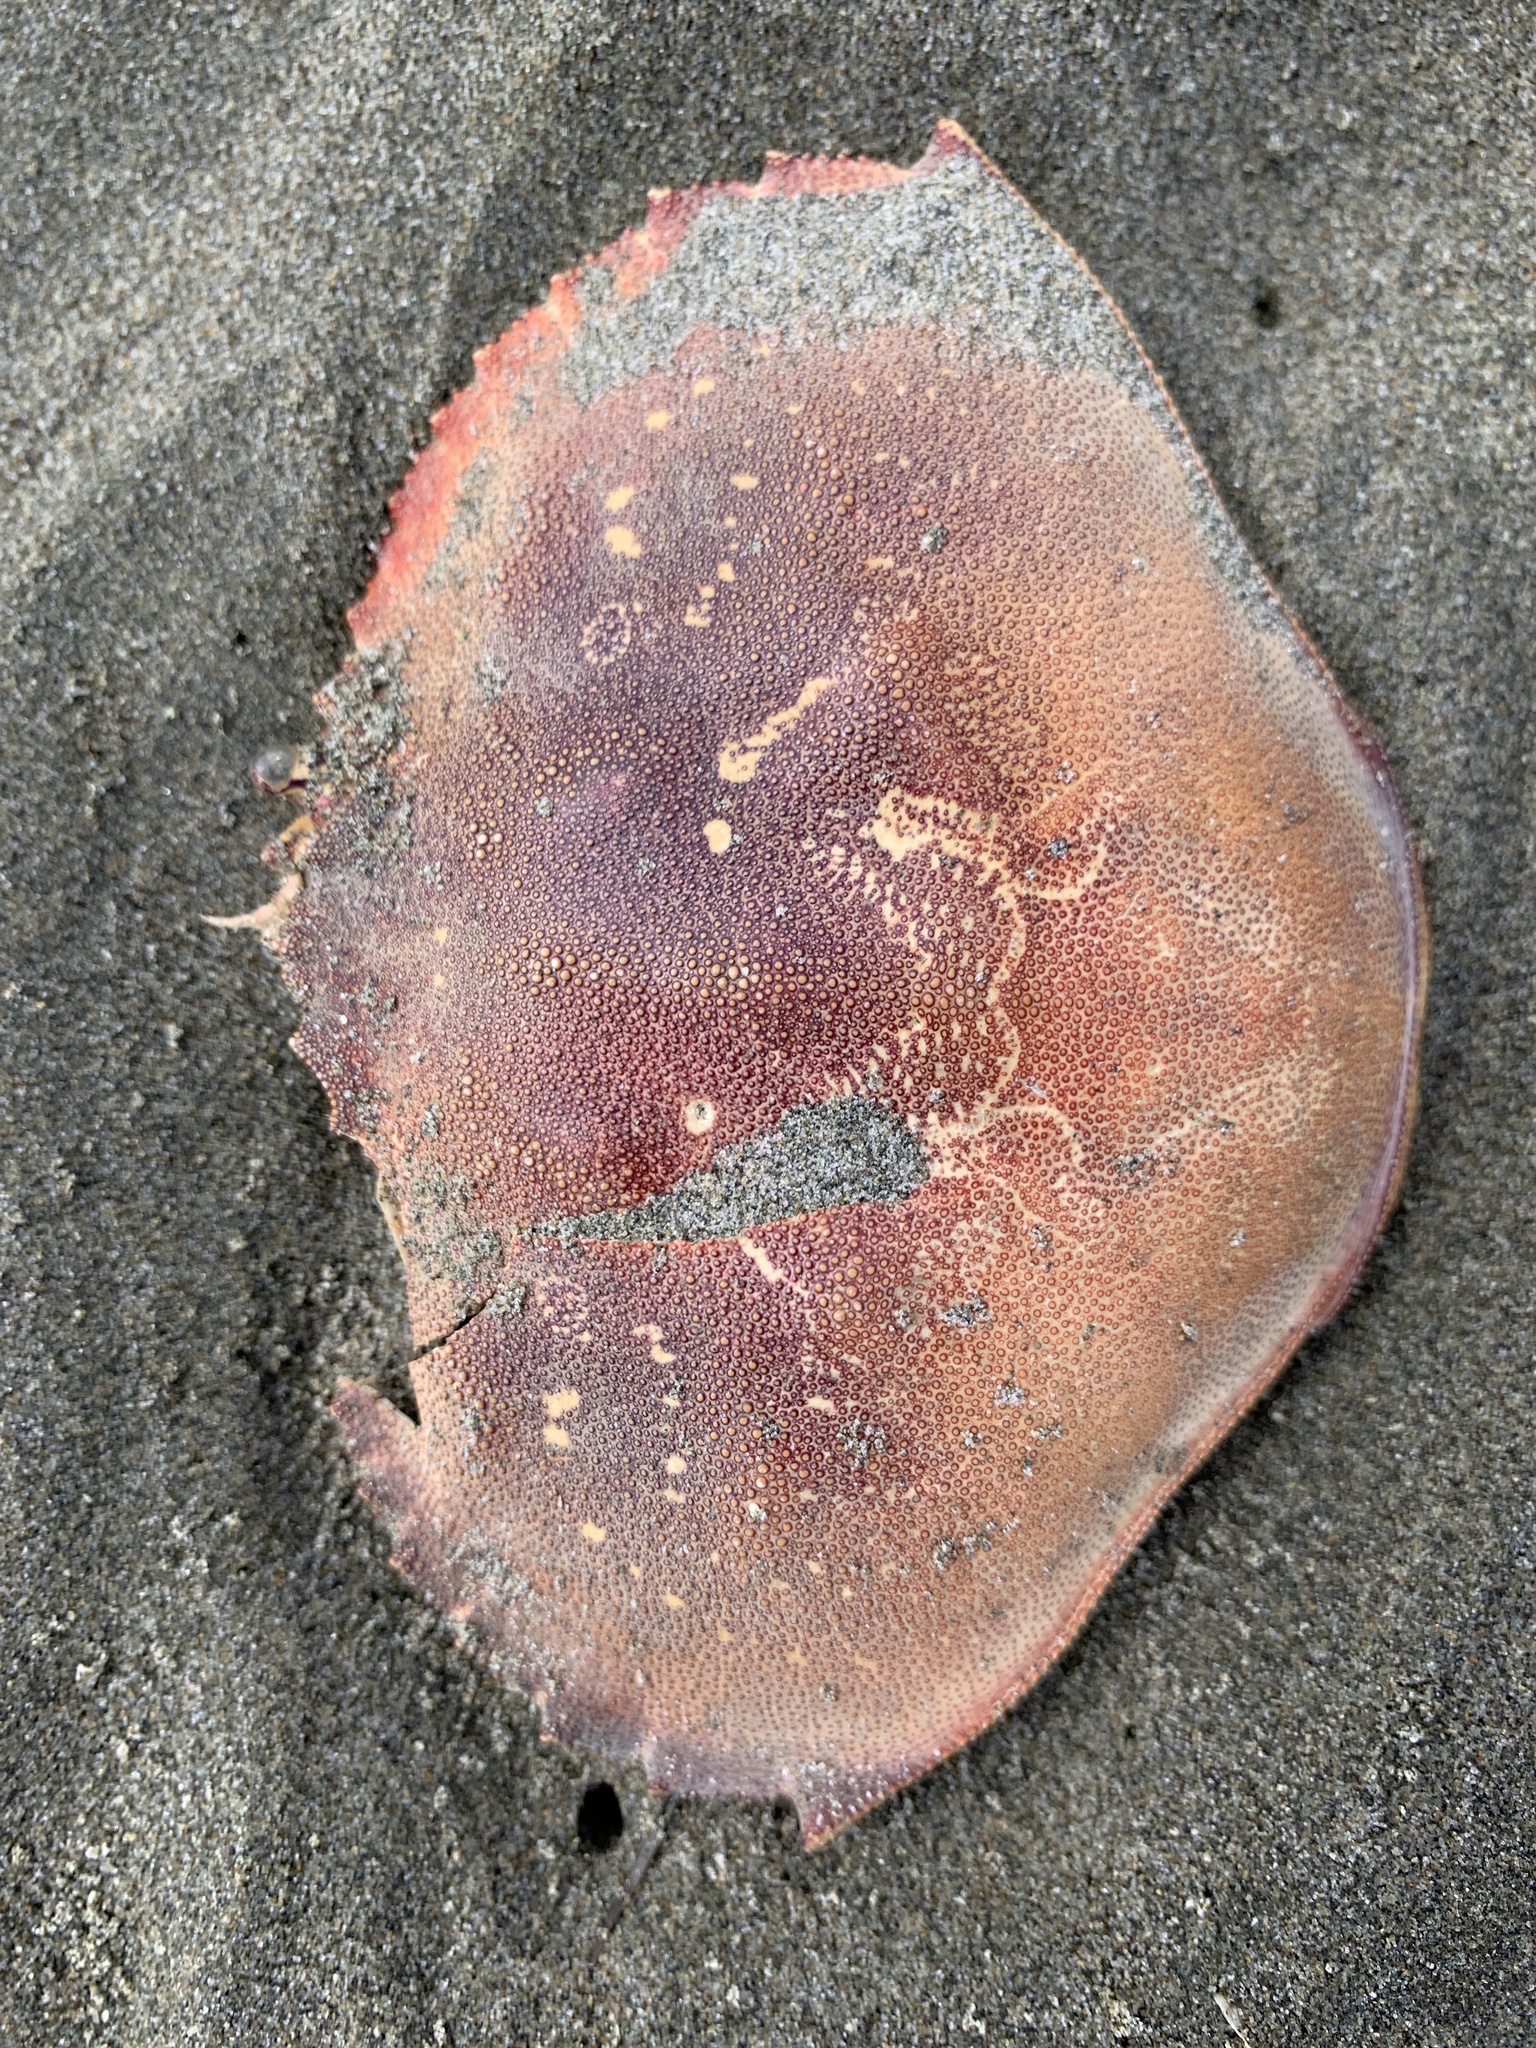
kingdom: Animalia
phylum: Arthropoda
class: Malacostraca
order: Decapoda
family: Cancridae
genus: Metacarcinus
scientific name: Metacarcinus magister
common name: Californian crab
